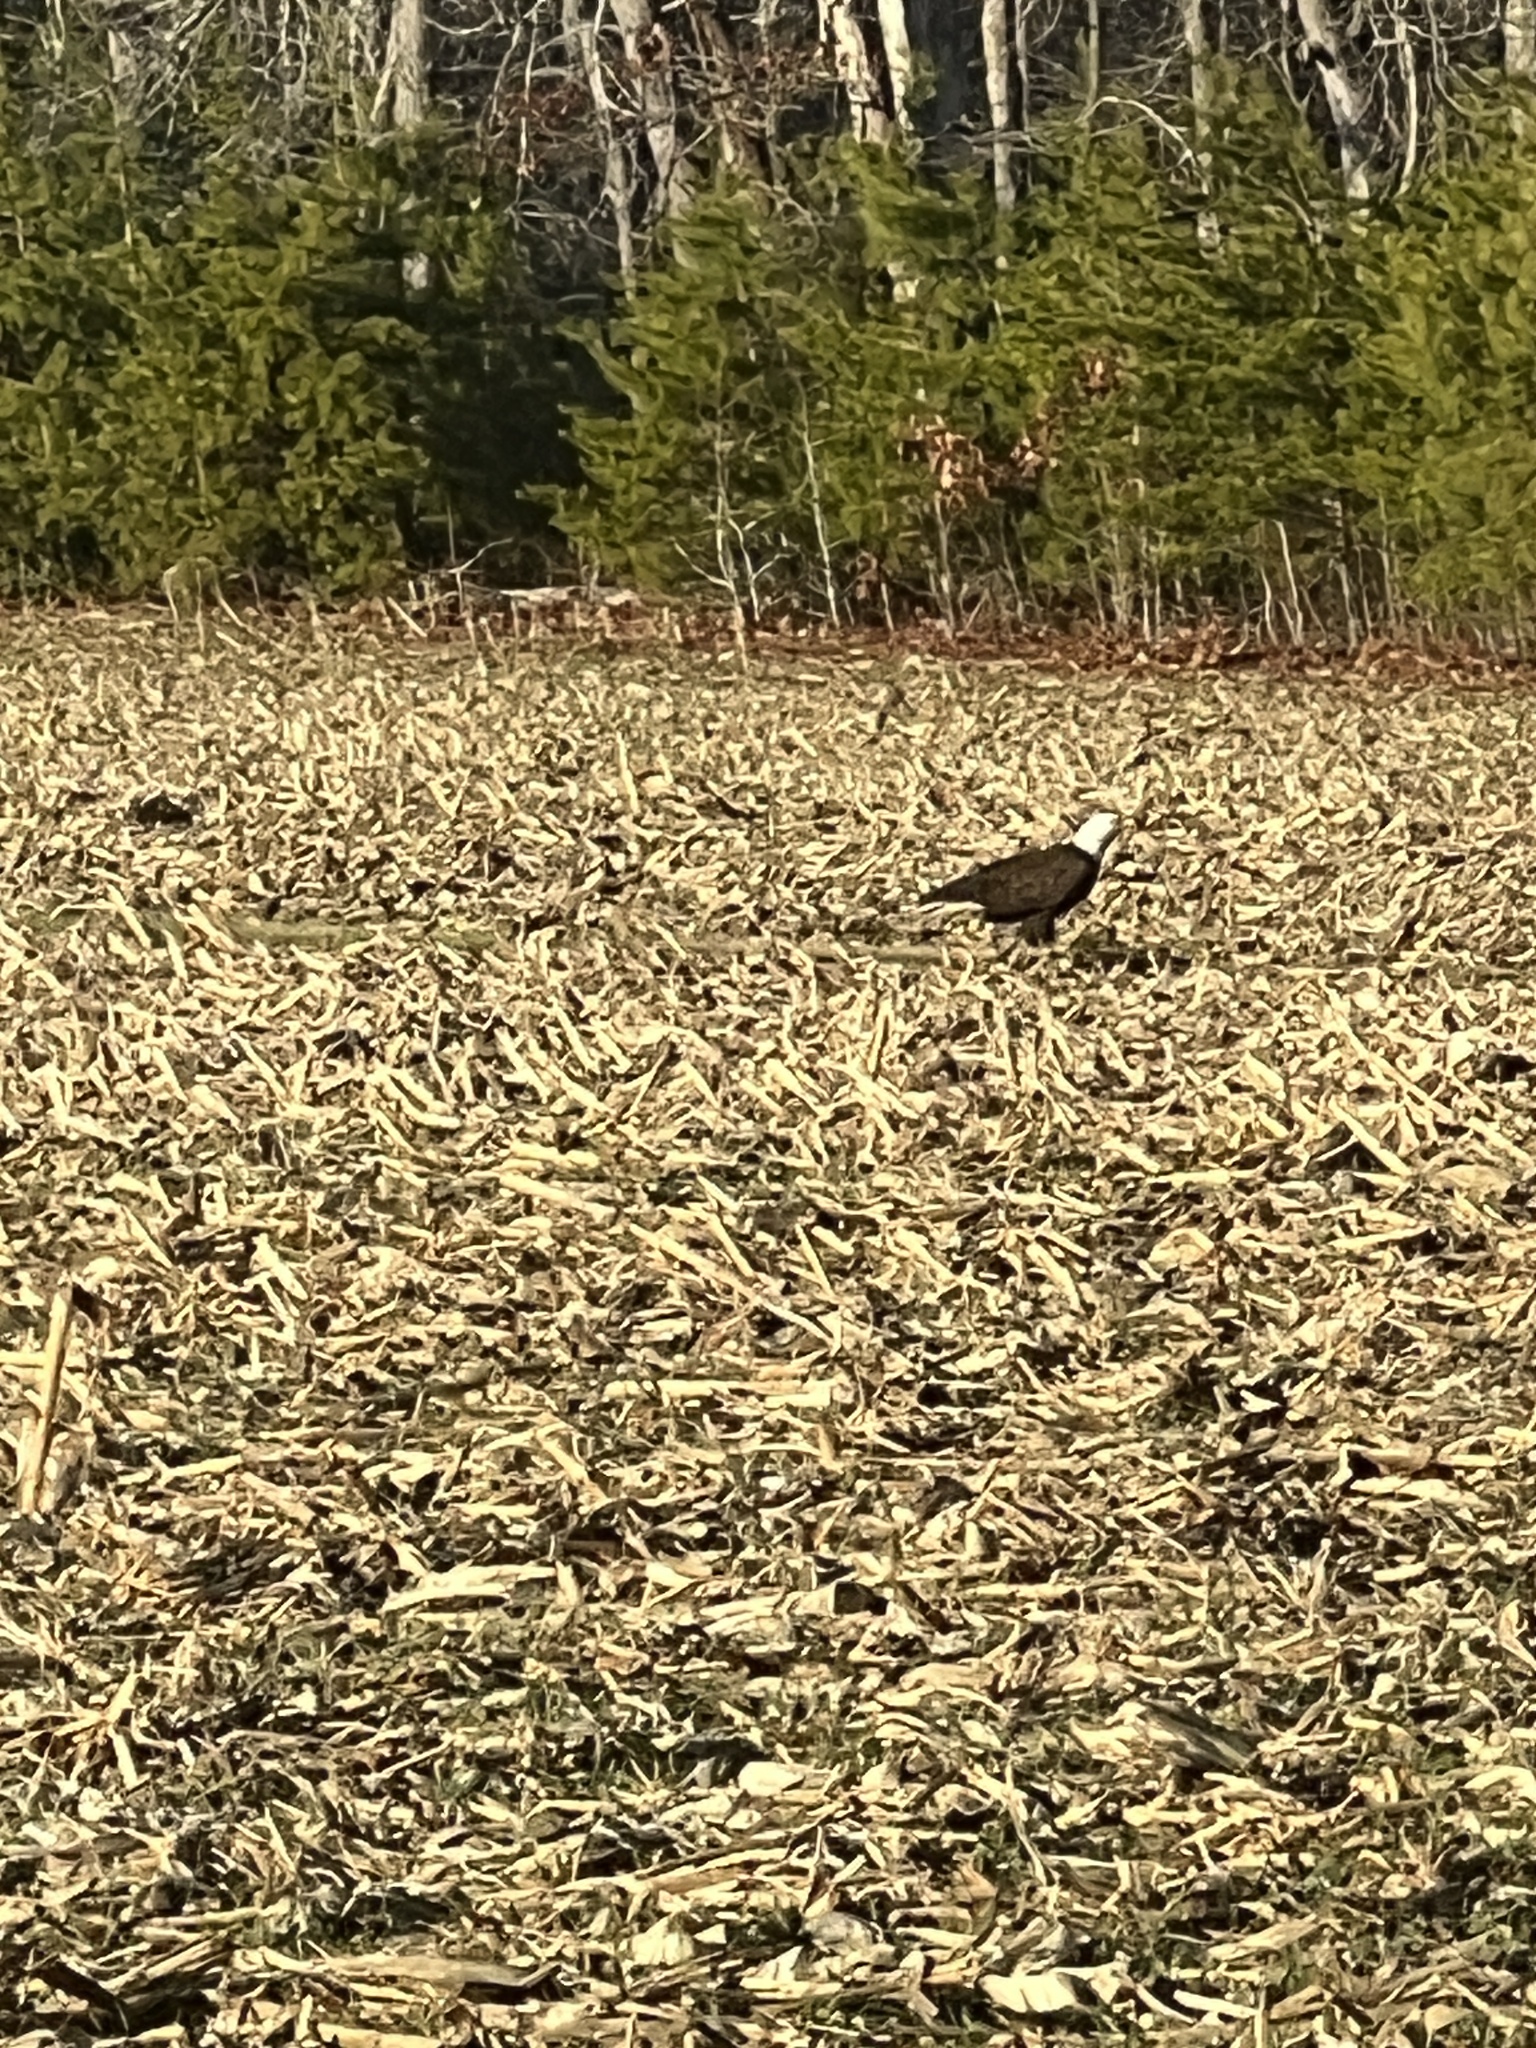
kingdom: Animalia
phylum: Chordata
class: Aves
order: Accipitriformes
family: Accipitridae
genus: Haliaeetus
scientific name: Haliaeetus leucocephalus
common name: Bald eagle
